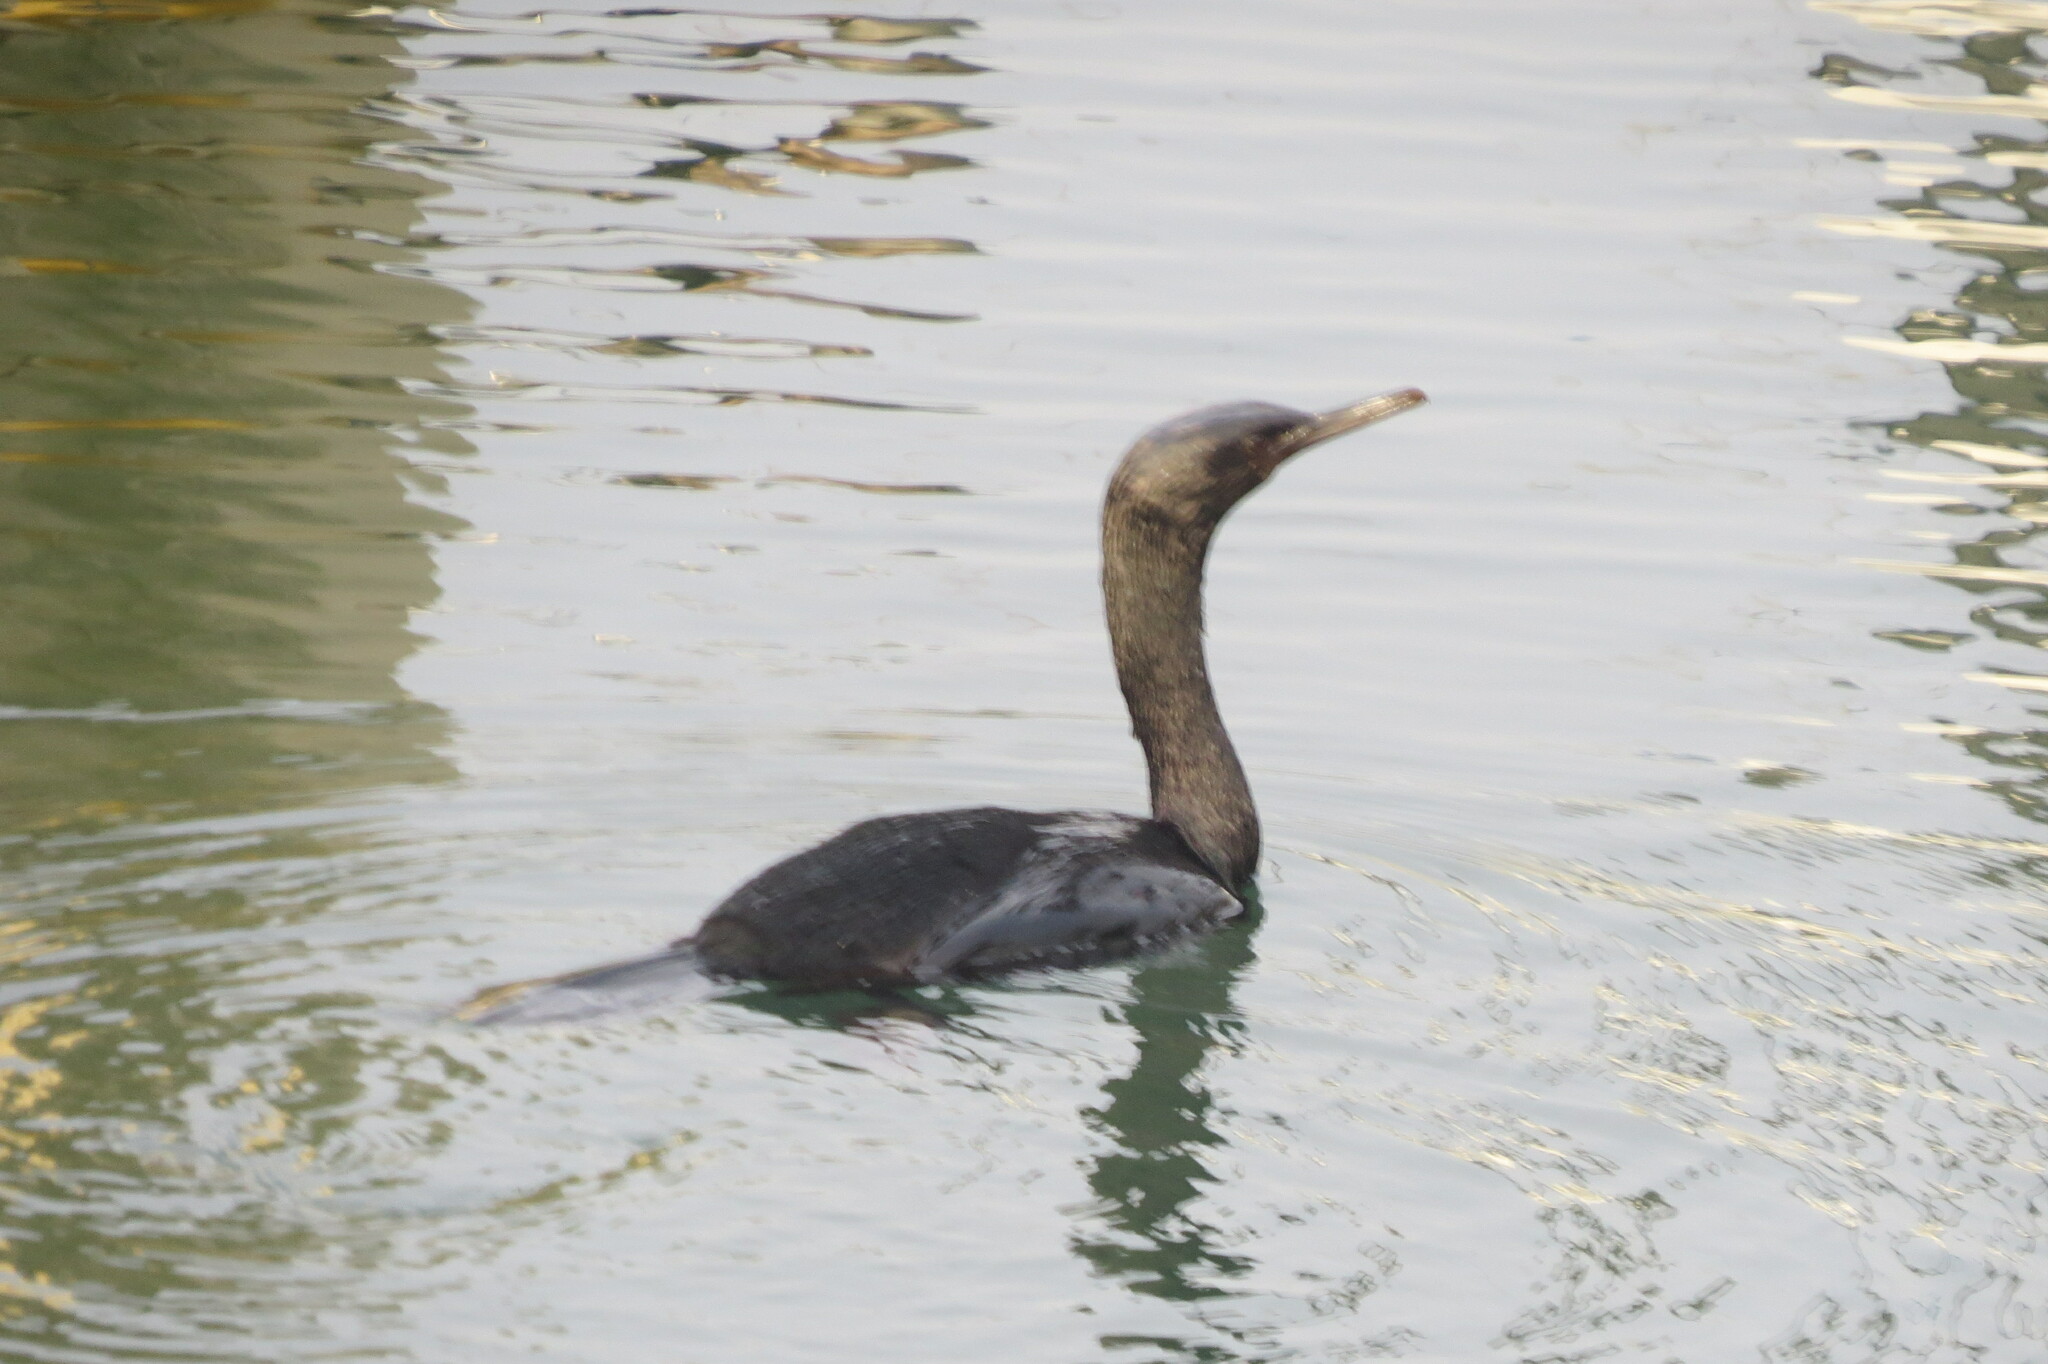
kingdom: Animalia
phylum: Chordata
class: Aves
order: Suliformes
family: Phalacrocoracidae
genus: Phalacrocorax
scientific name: Phalacrocorax pelagicus
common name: Pelagic cormorant
